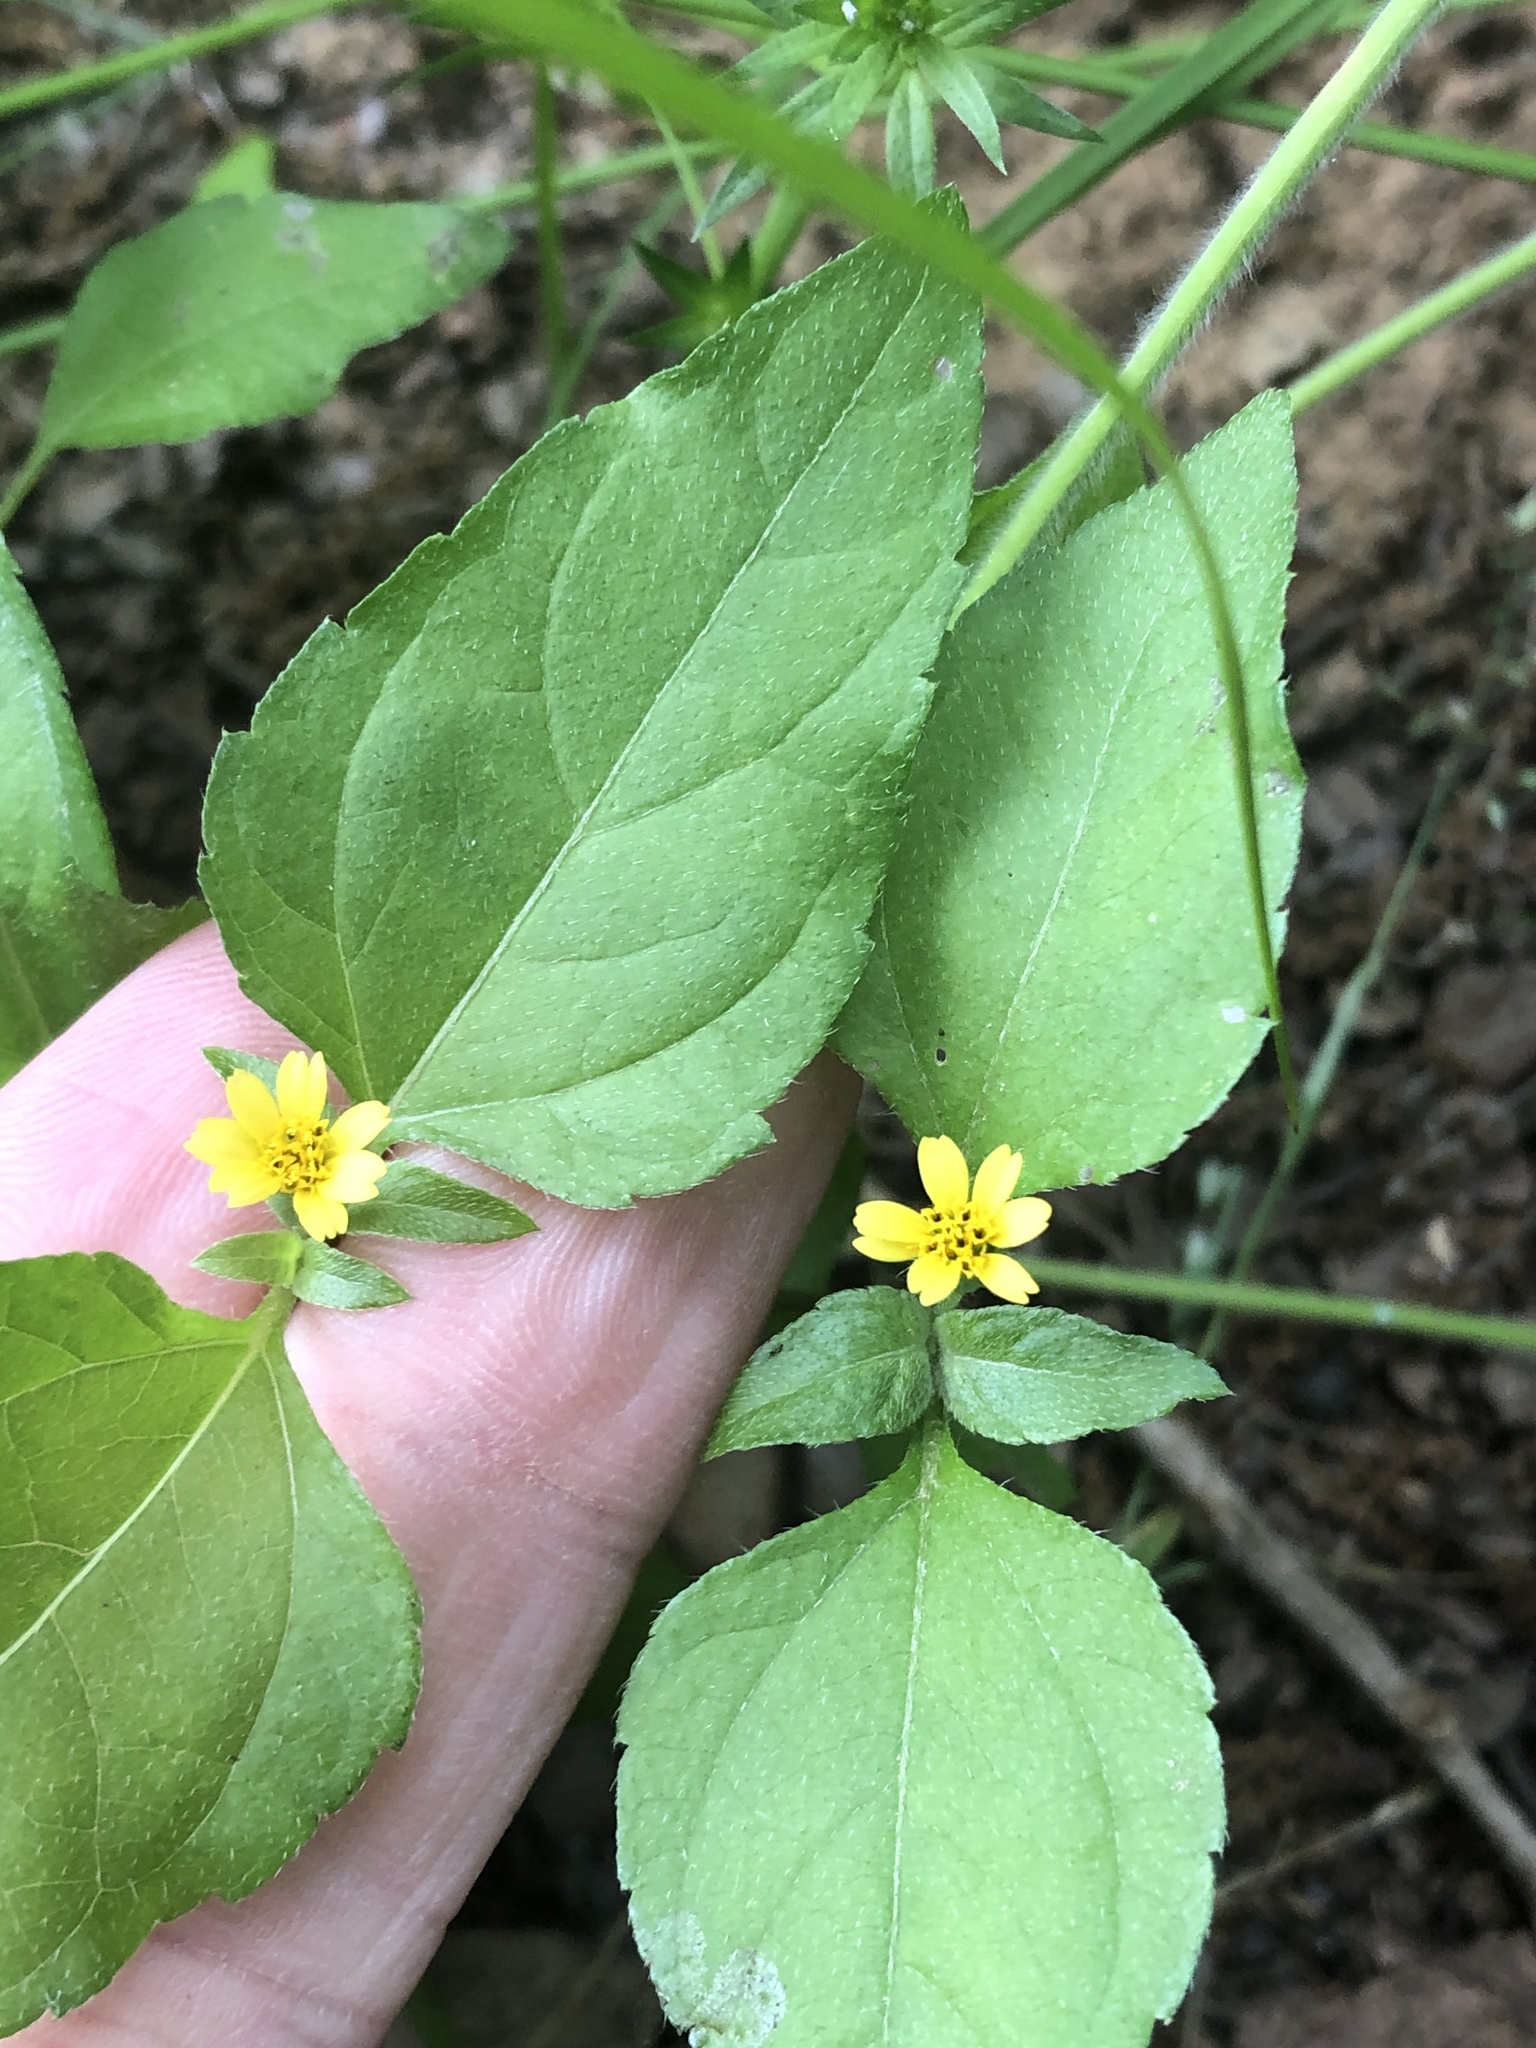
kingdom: Plantae
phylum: Tracheophyta
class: Magnoliopsida
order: Asterales
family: Asteraceae
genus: Calyptocarpus
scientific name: Calyptocarpus vialis
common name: Straggler daisy
